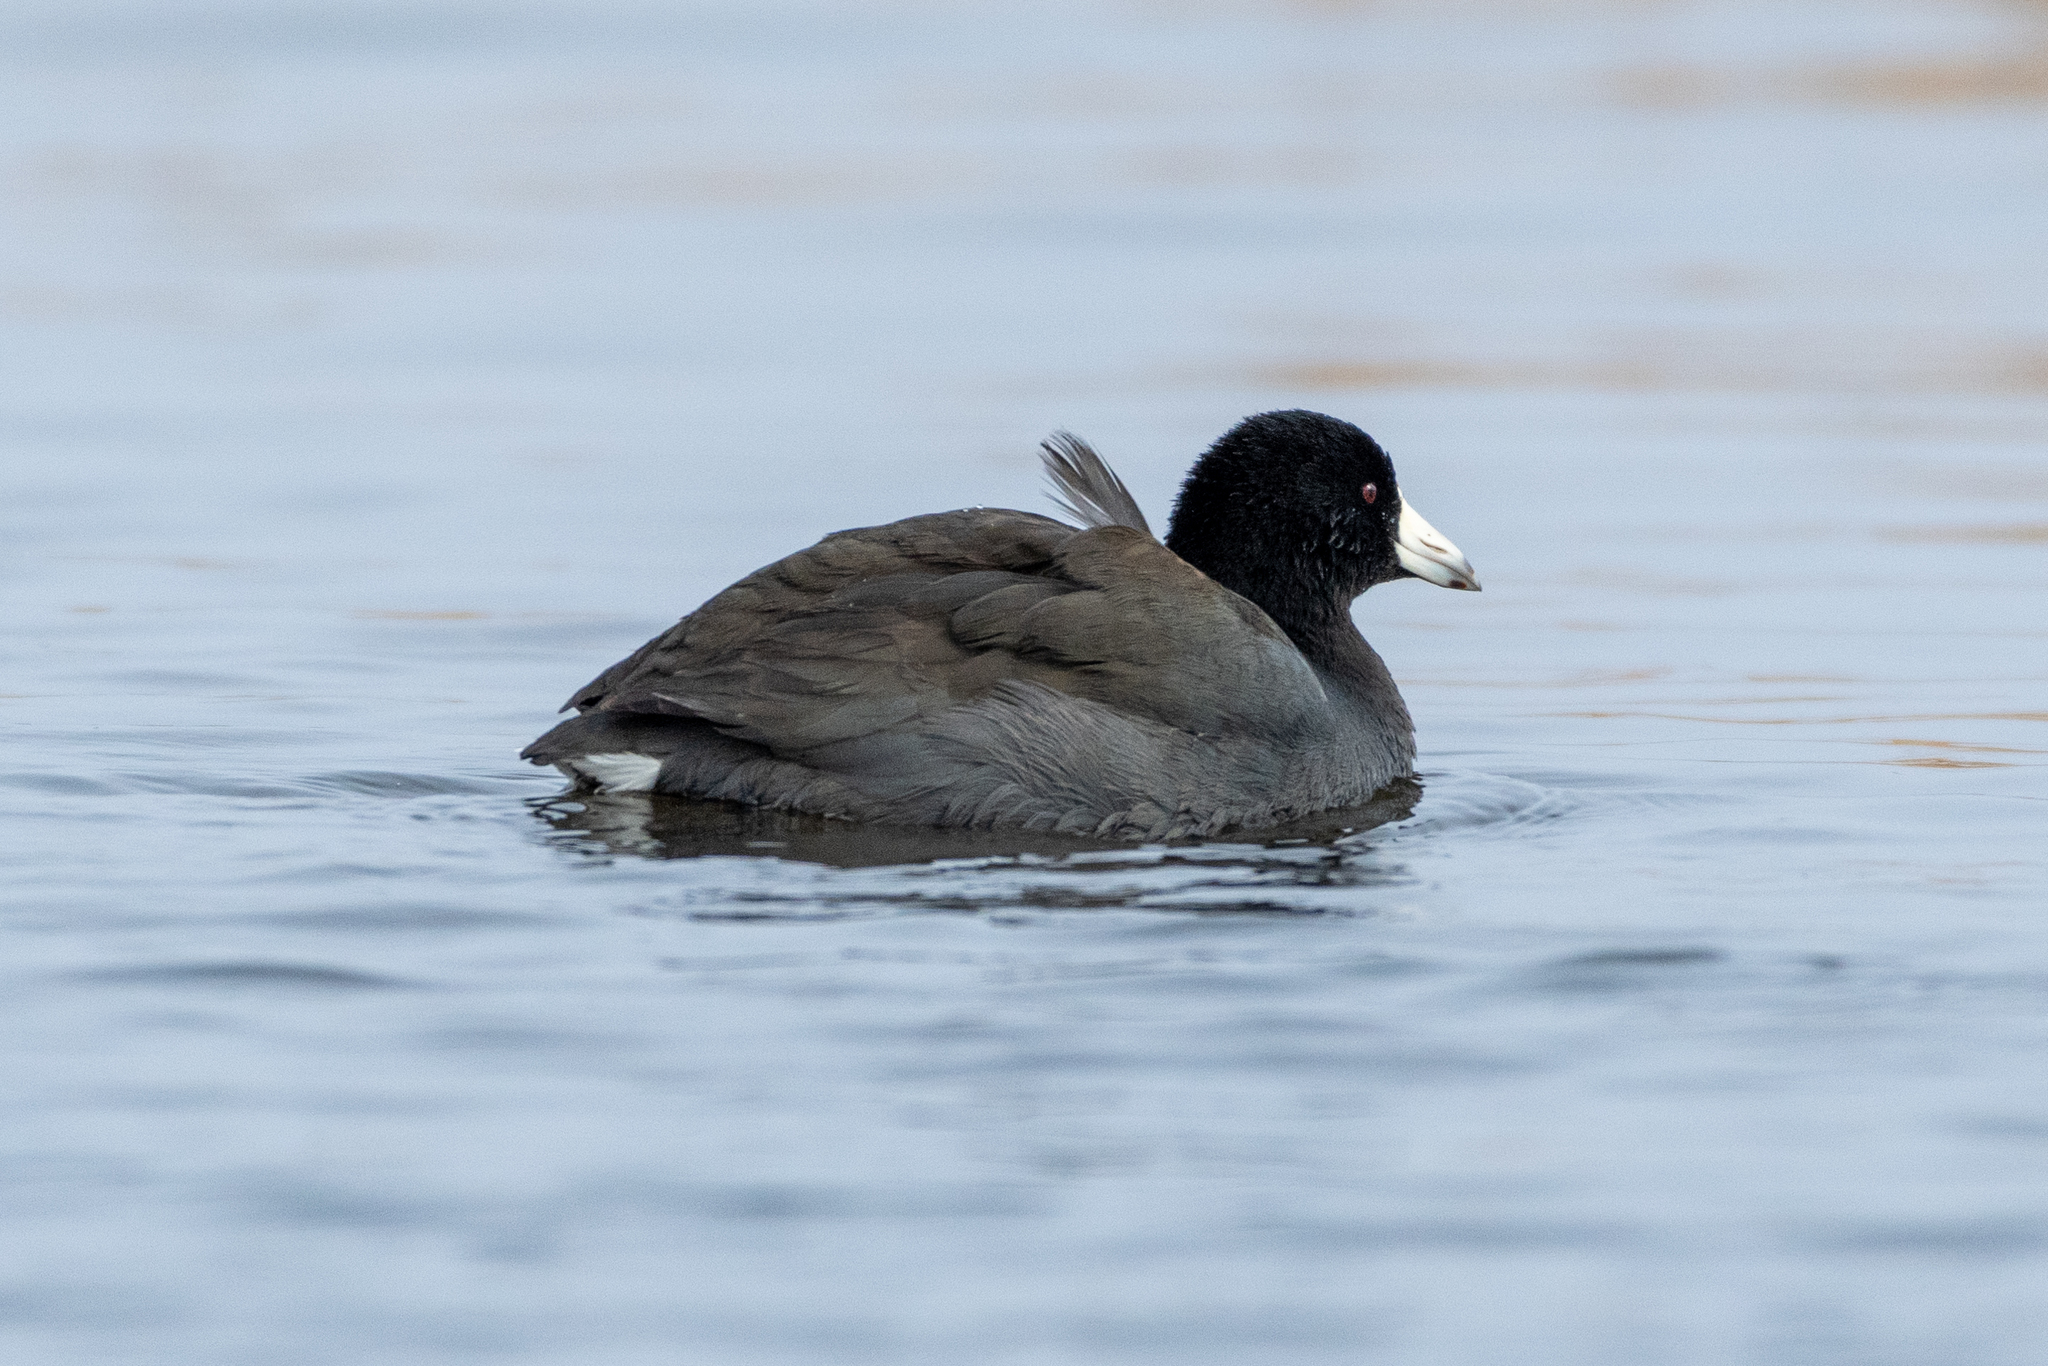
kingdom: Animalia
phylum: Chordata
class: Aves
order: Gruiformes
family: Rallidae
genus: Fulica
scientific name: Fulica americana
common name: American coot
